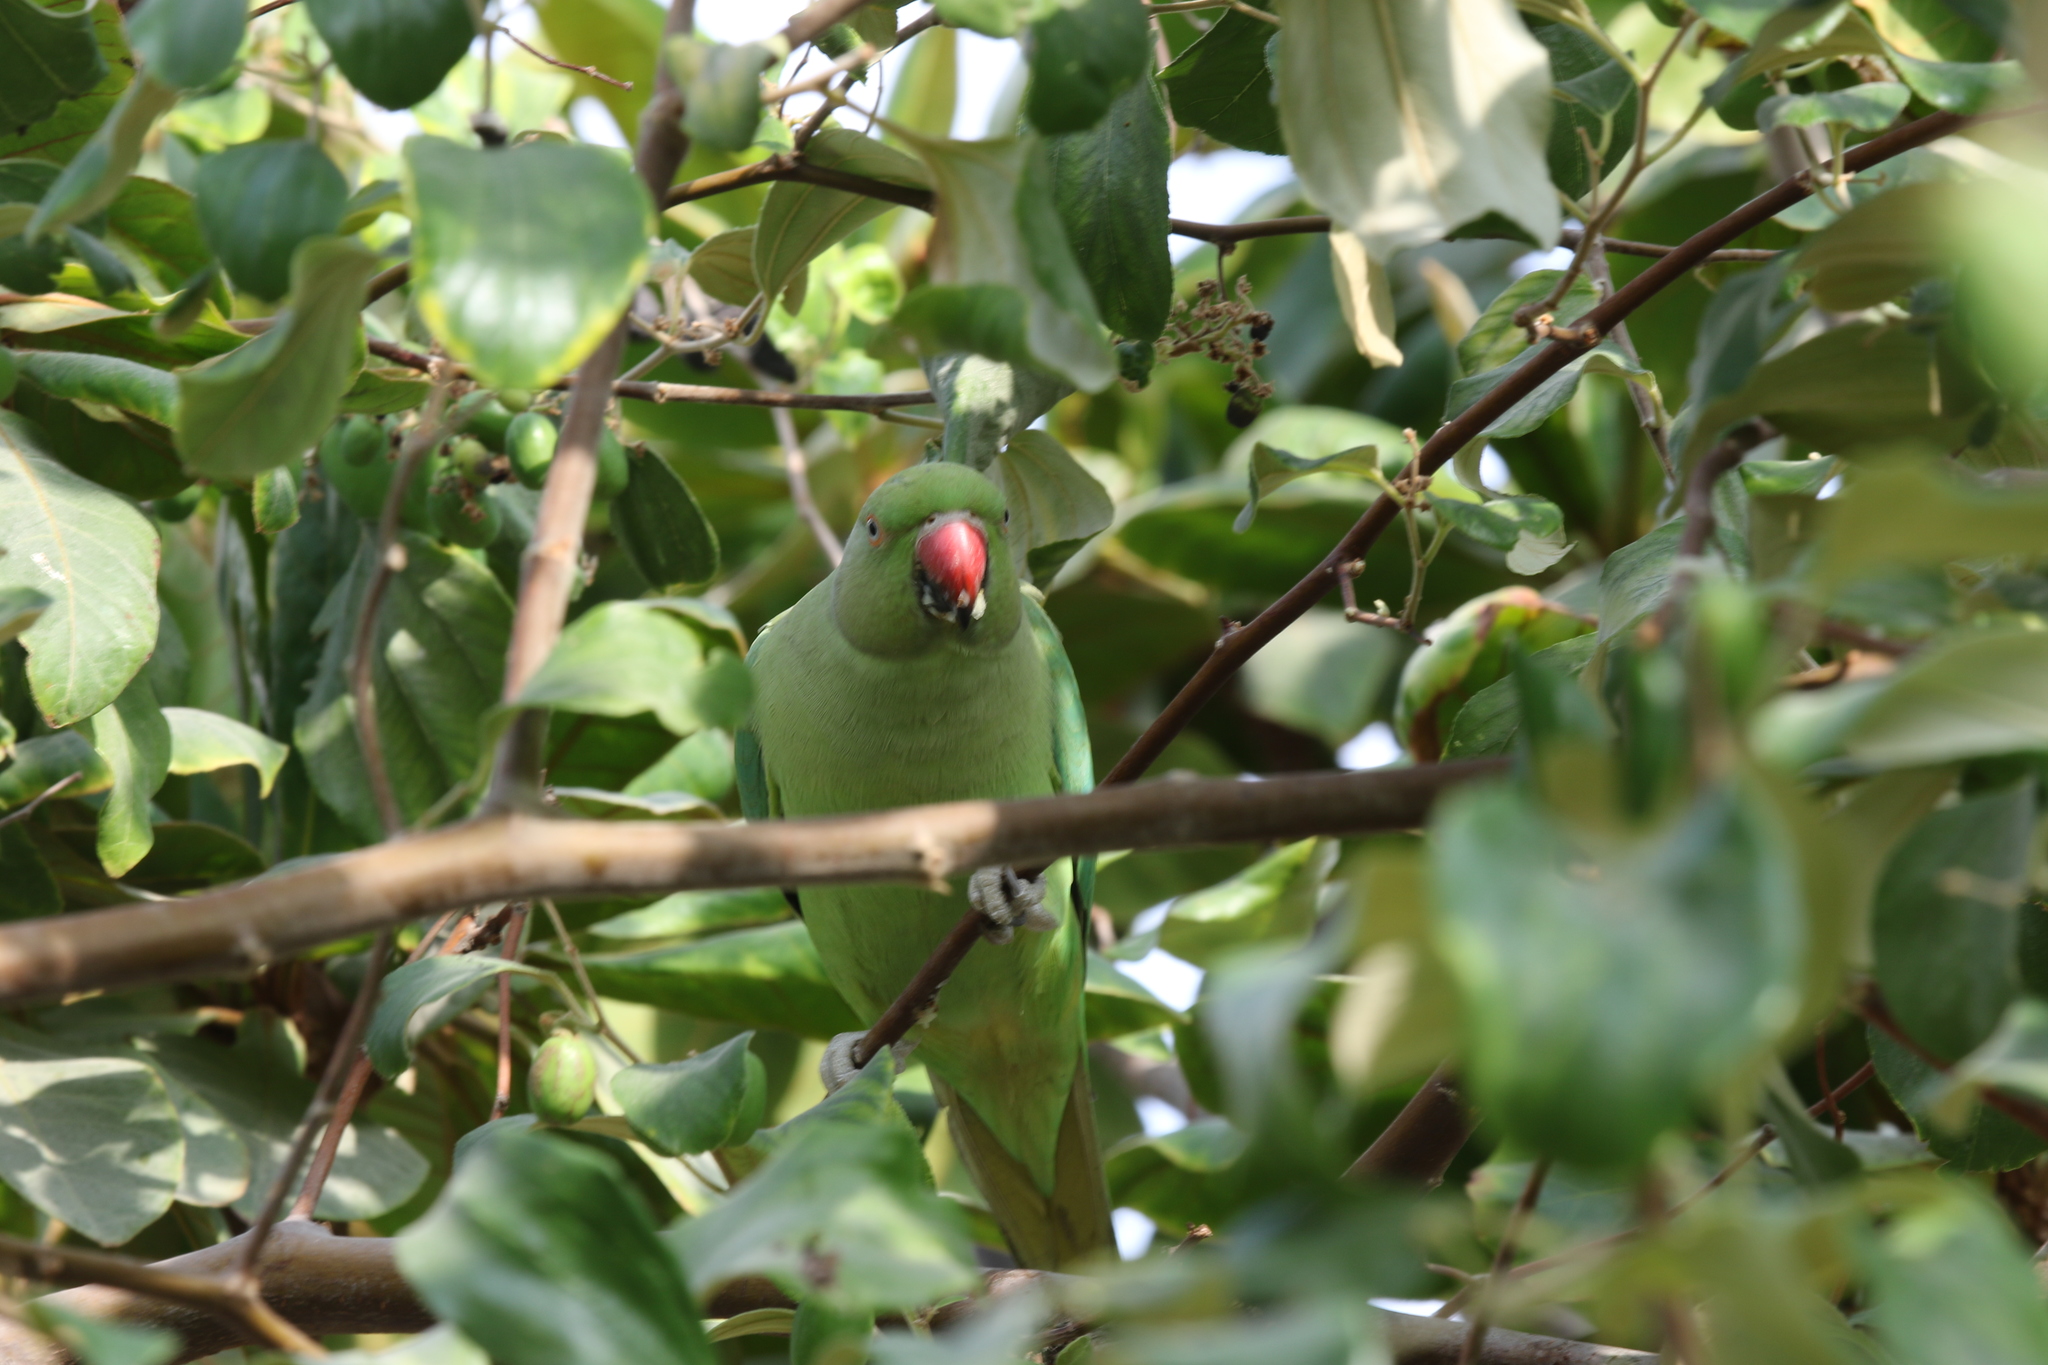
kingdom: Animalia
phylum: Chordata
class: Aves
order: Psittaciformes
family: Psittacidae
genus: Psittacula
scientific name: Psittacula krameri
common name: Rose-ringed parakeet
